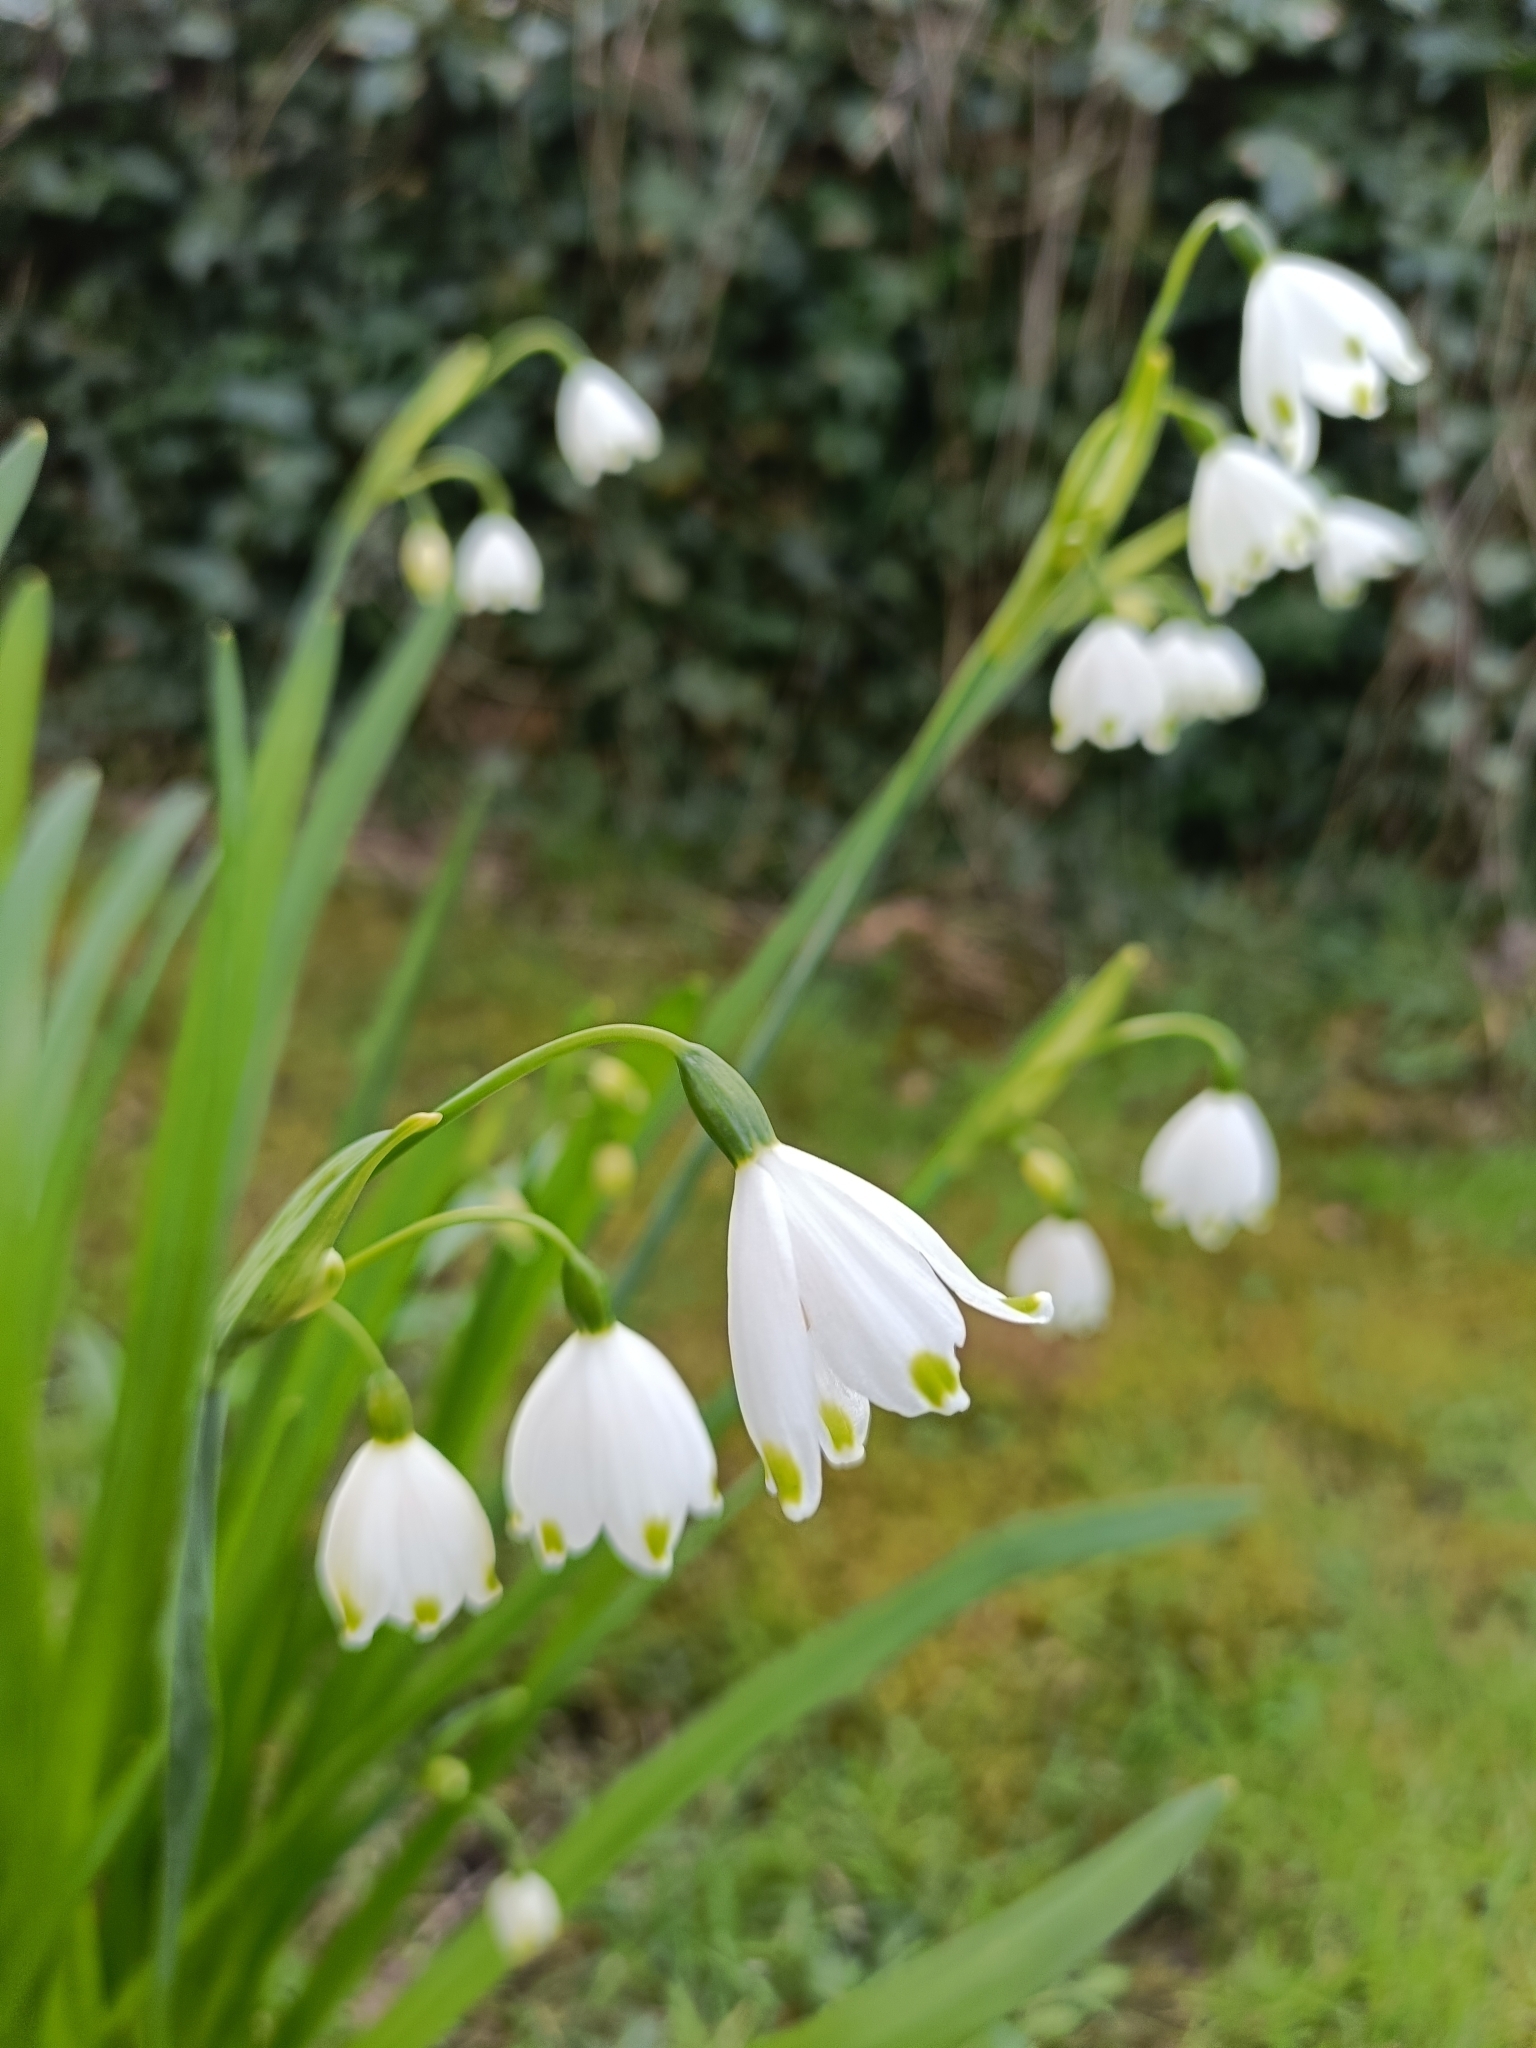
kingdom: Plantae
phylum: Tracheophyta
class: Liliopsida
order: Asparagales
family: Amaryllidaceae
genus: Leucojum
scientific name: Leucojum aestivum
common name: Summer snowflake
